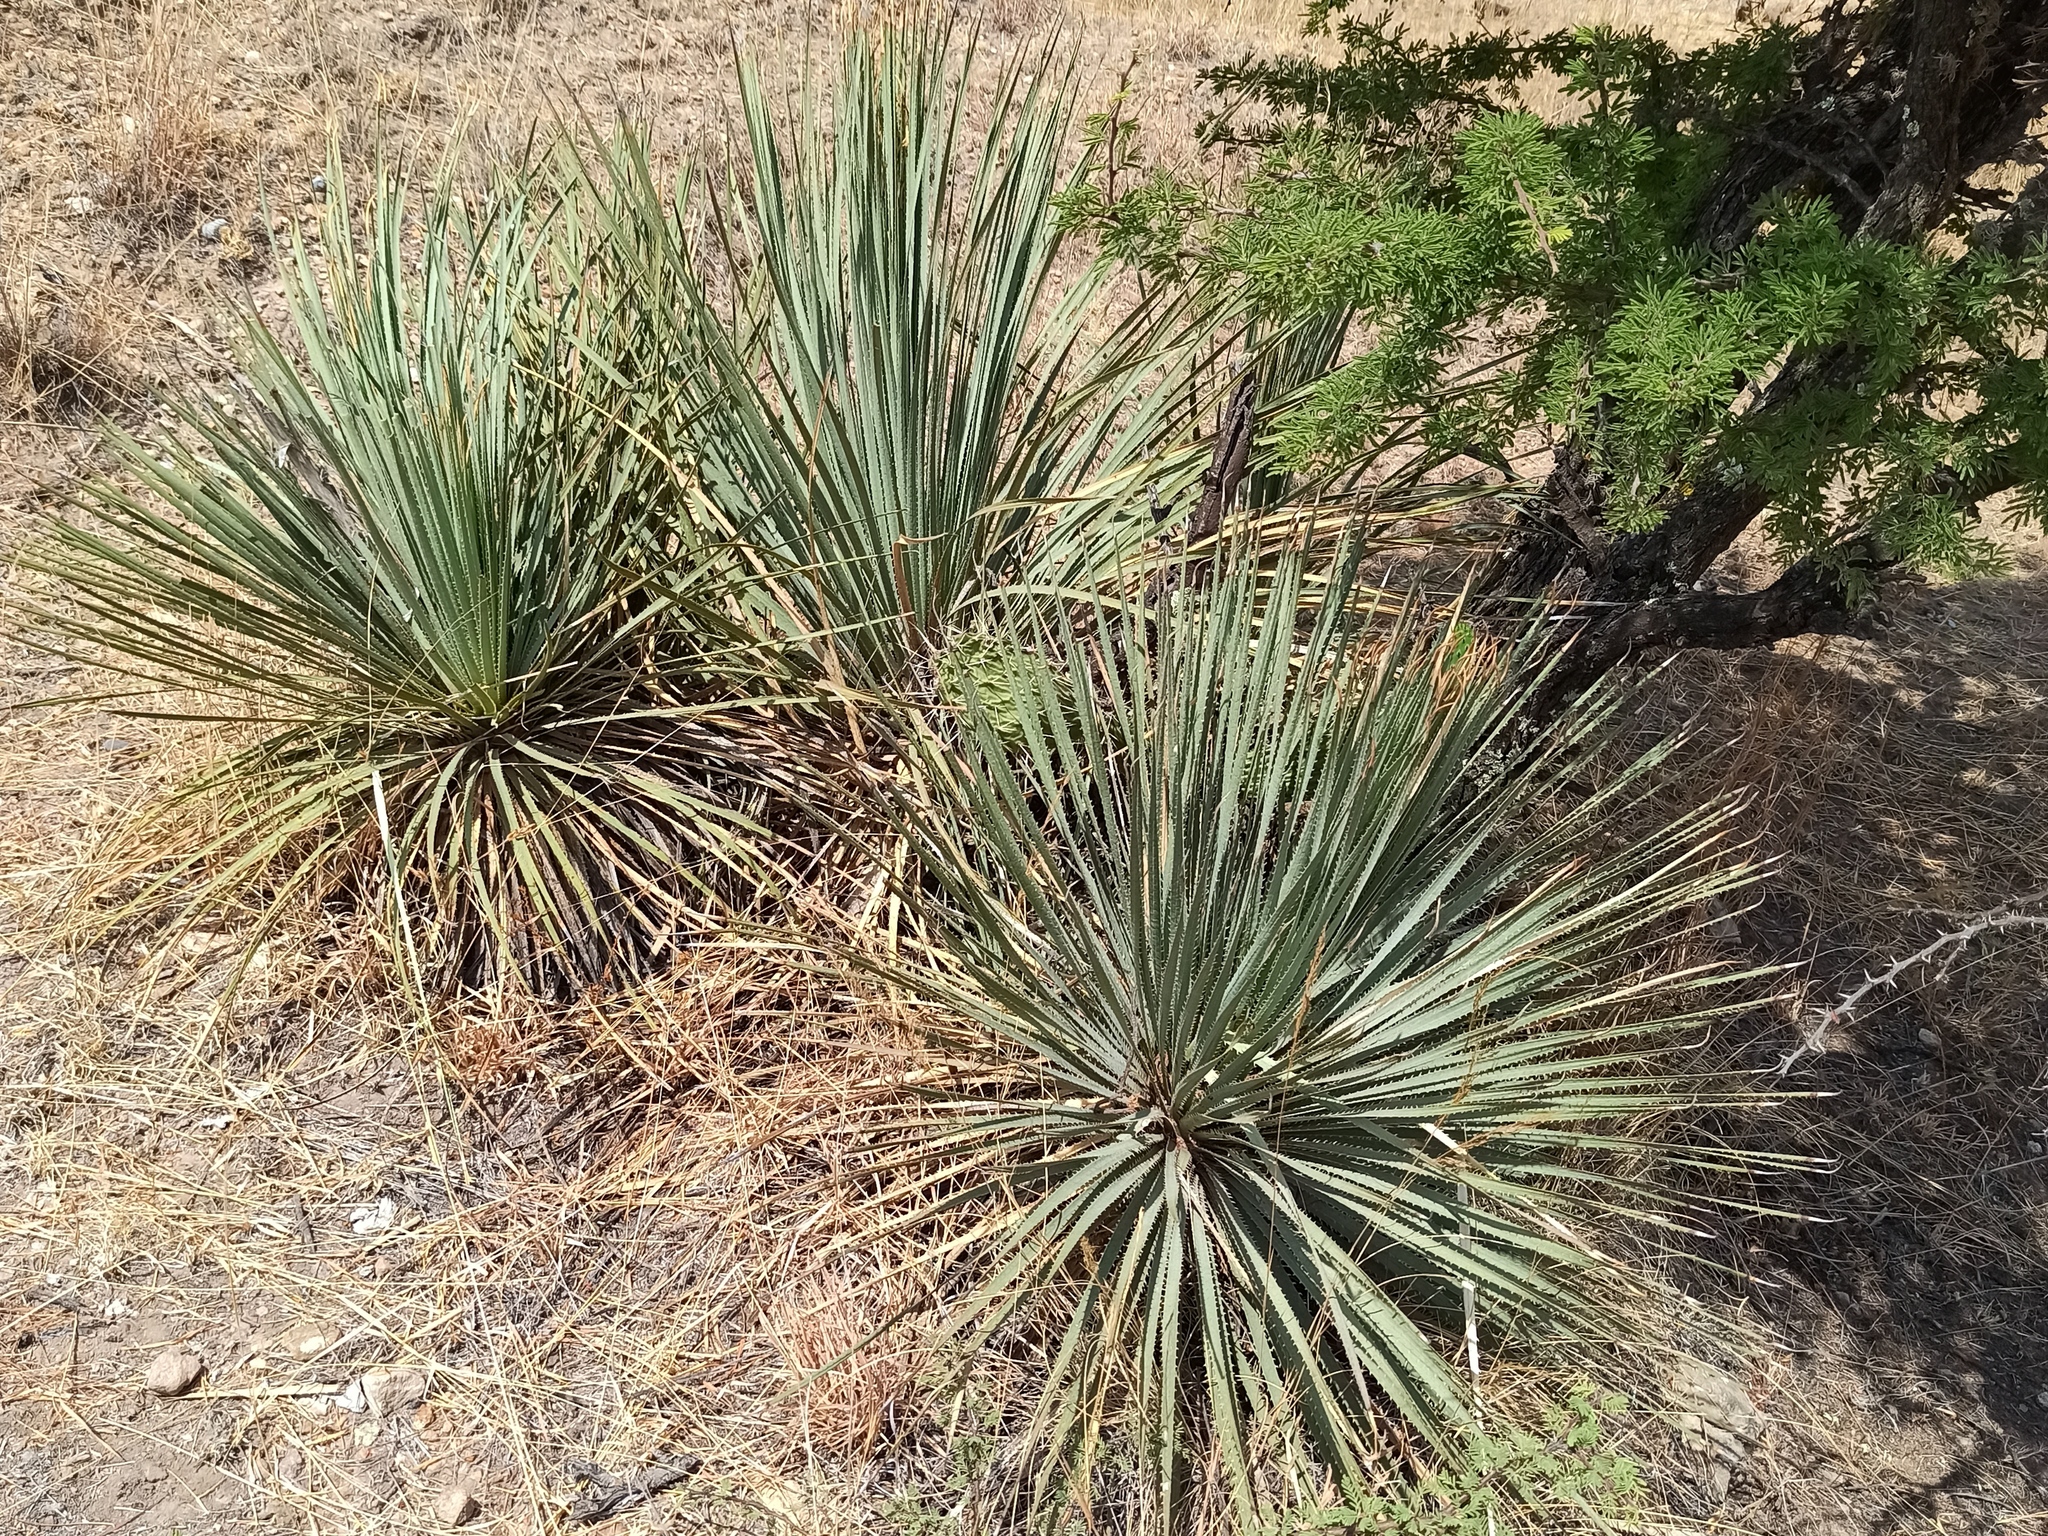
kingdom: Plantae
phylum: Tracheophyta
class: Liliopsida
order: Asparagales
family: Asparagaceae
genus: Dasylirion
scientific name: Dasylirion parryanum
